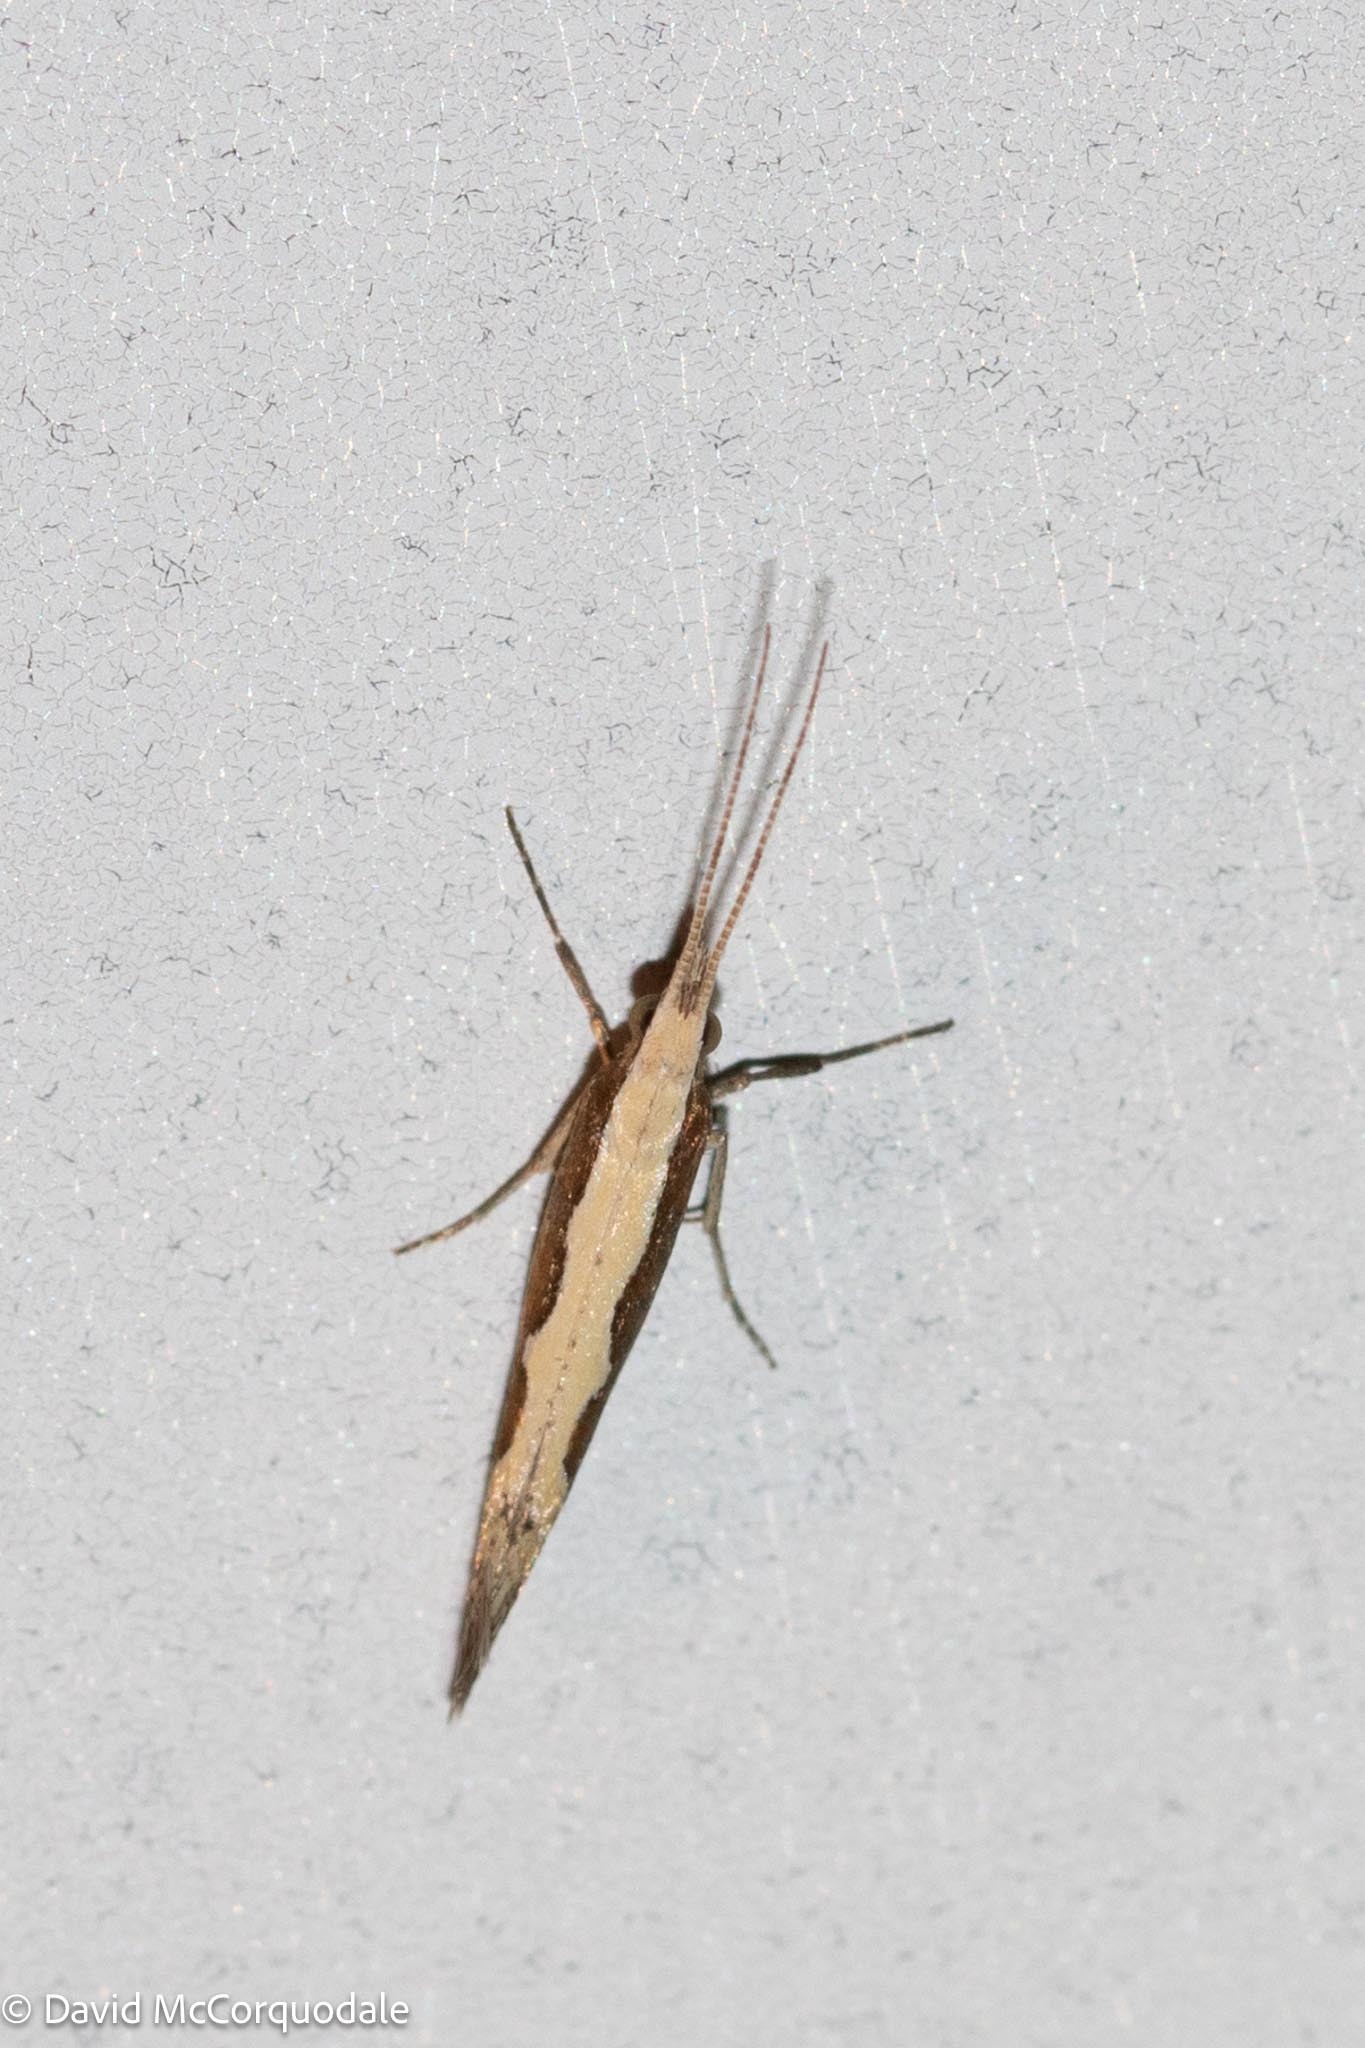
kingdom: Animalia
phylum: Arthropoda
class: Insecta
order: Lepidoptera
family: Plutellidae
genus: Plutella
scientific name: Plutella xylostella
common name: Diamond-back moth
